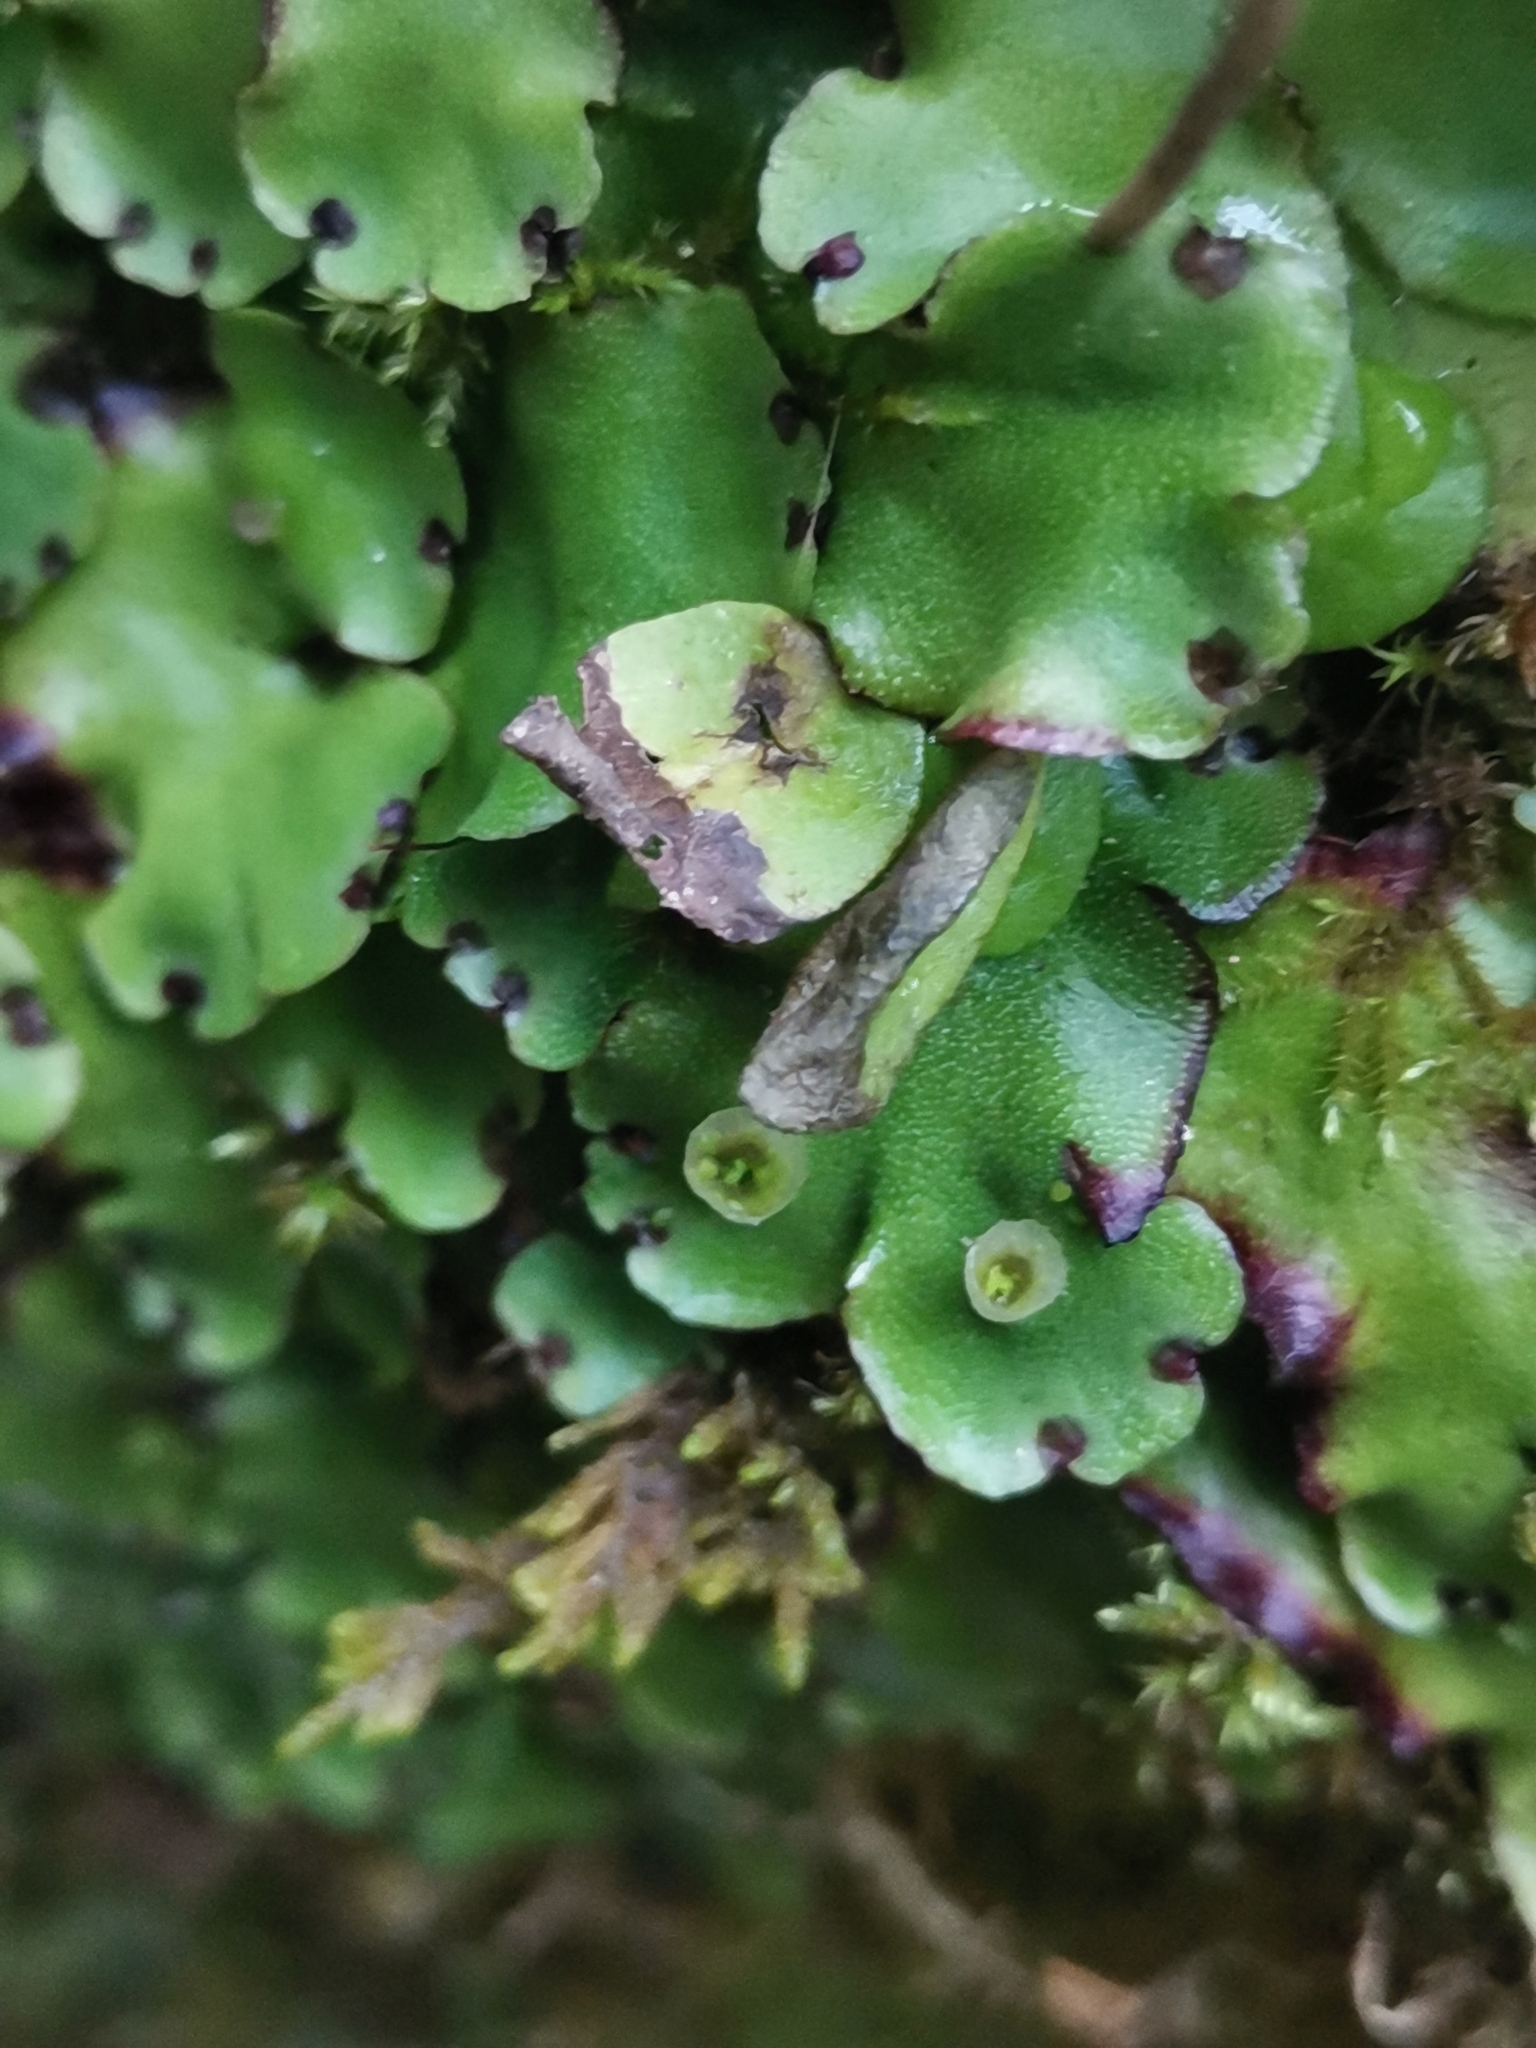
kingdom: Plantae
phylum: Marchantiophyta
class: Marchantiopsida
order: Marchantiales
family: Marchantiaceae
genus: Marchantia
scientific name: Marchantia paleacea
